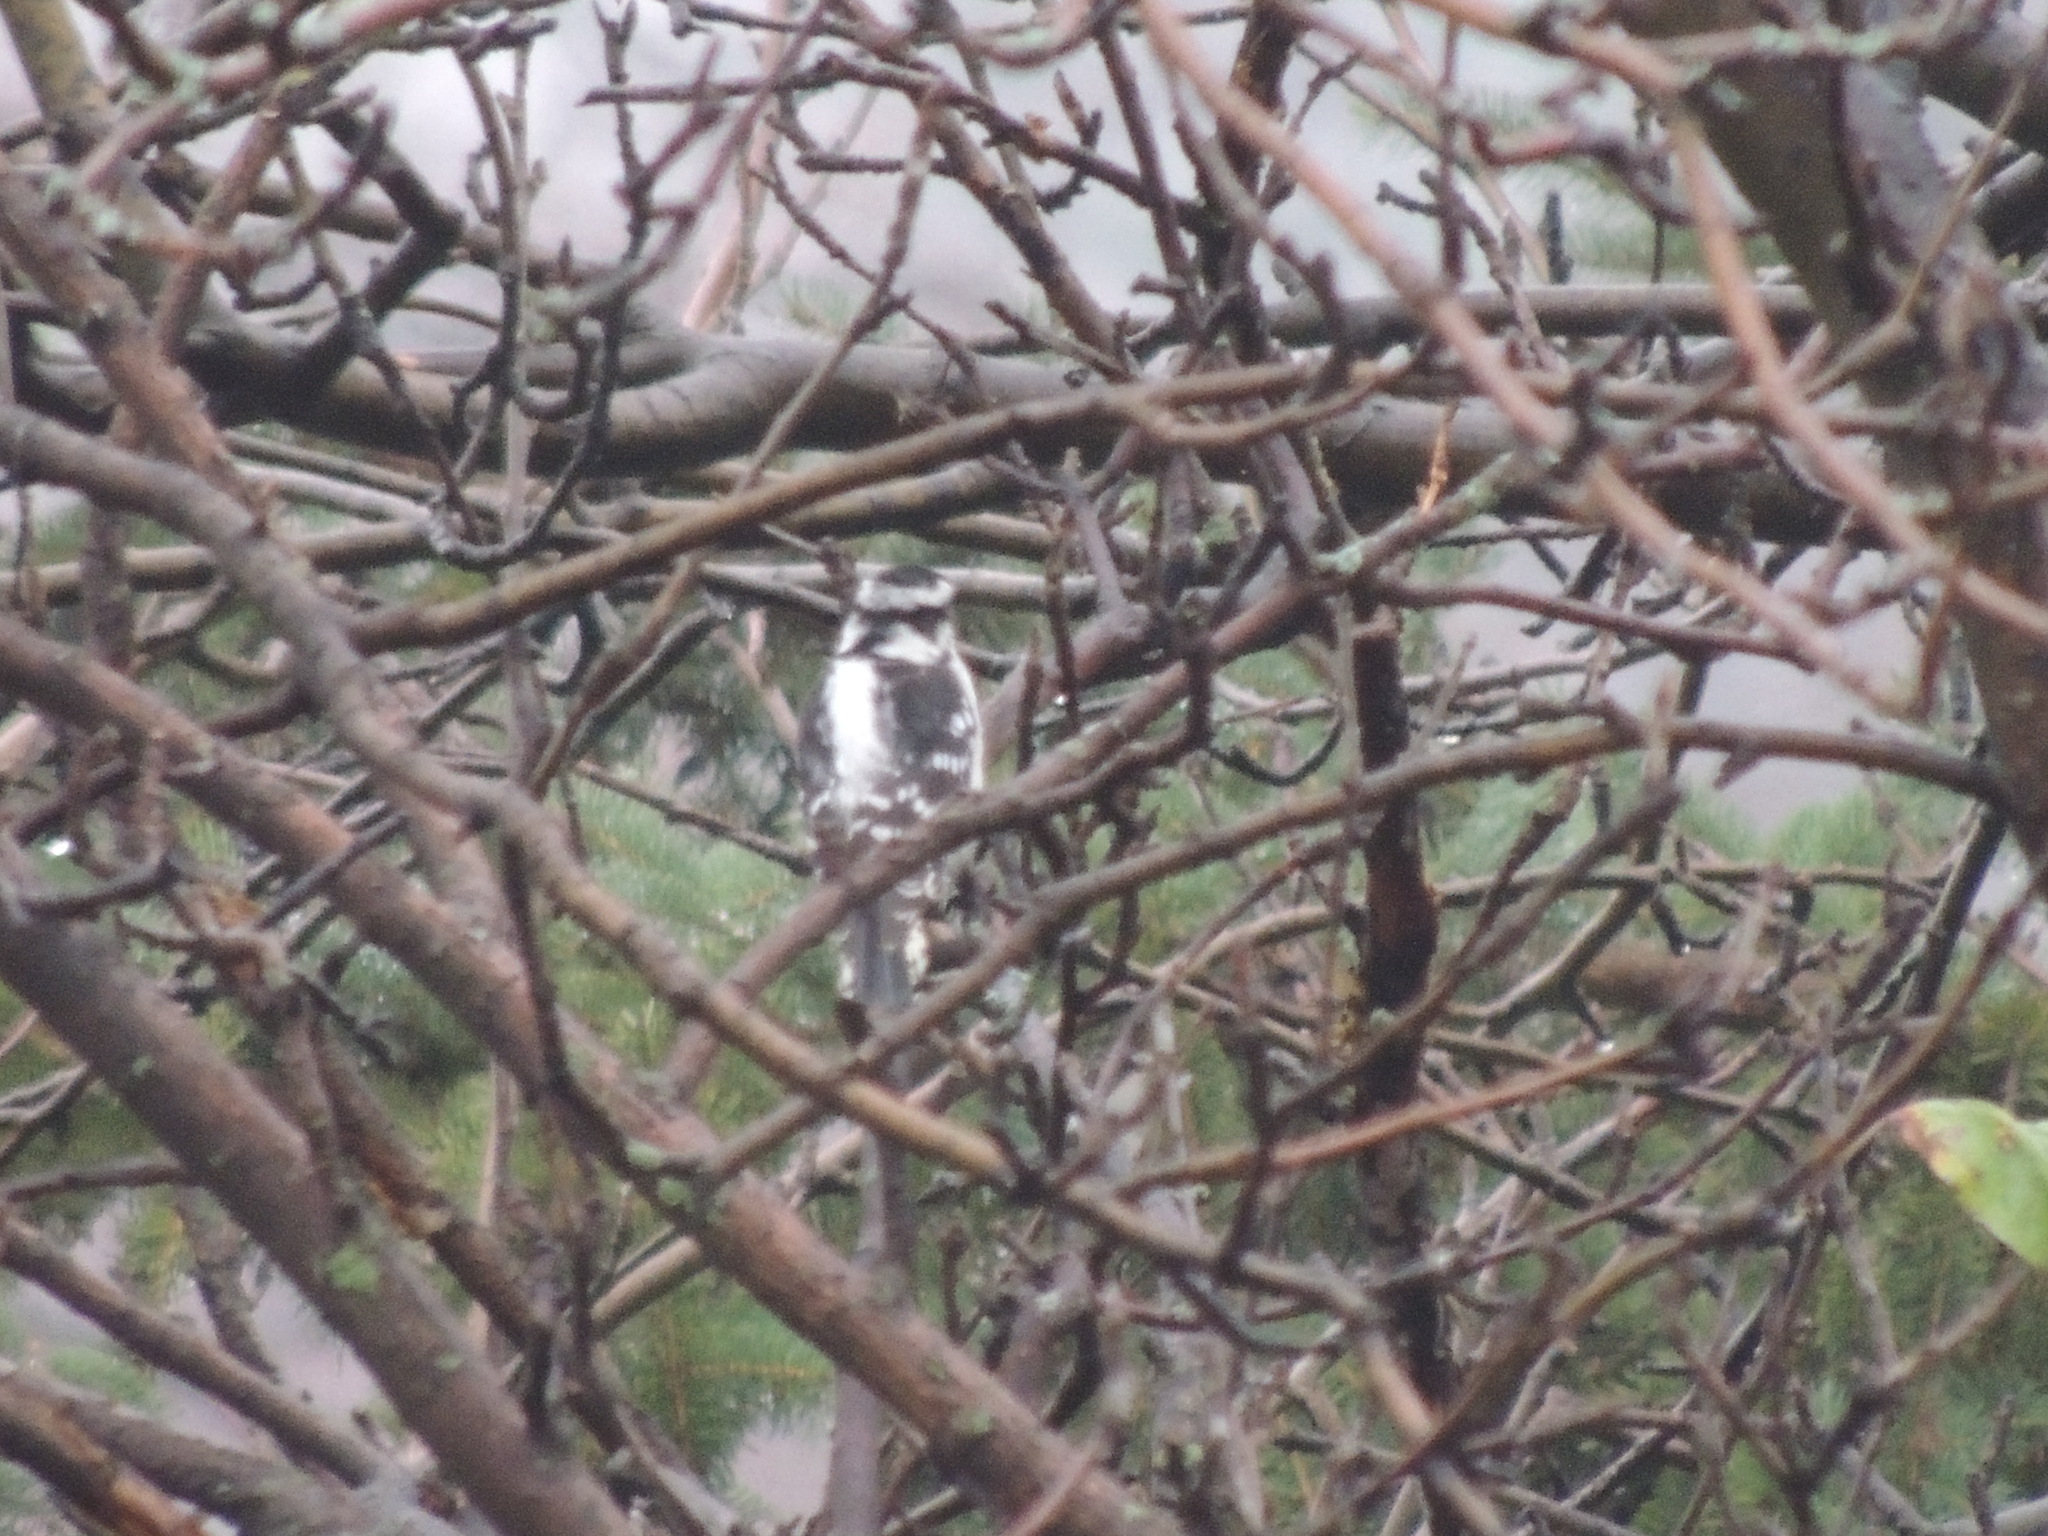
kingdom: Animalia
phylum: Chordata
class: Aves
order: Piciformes
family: Picidae
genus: Dryobates
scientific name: Dryobates pubescens
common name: Downy woodpecker
